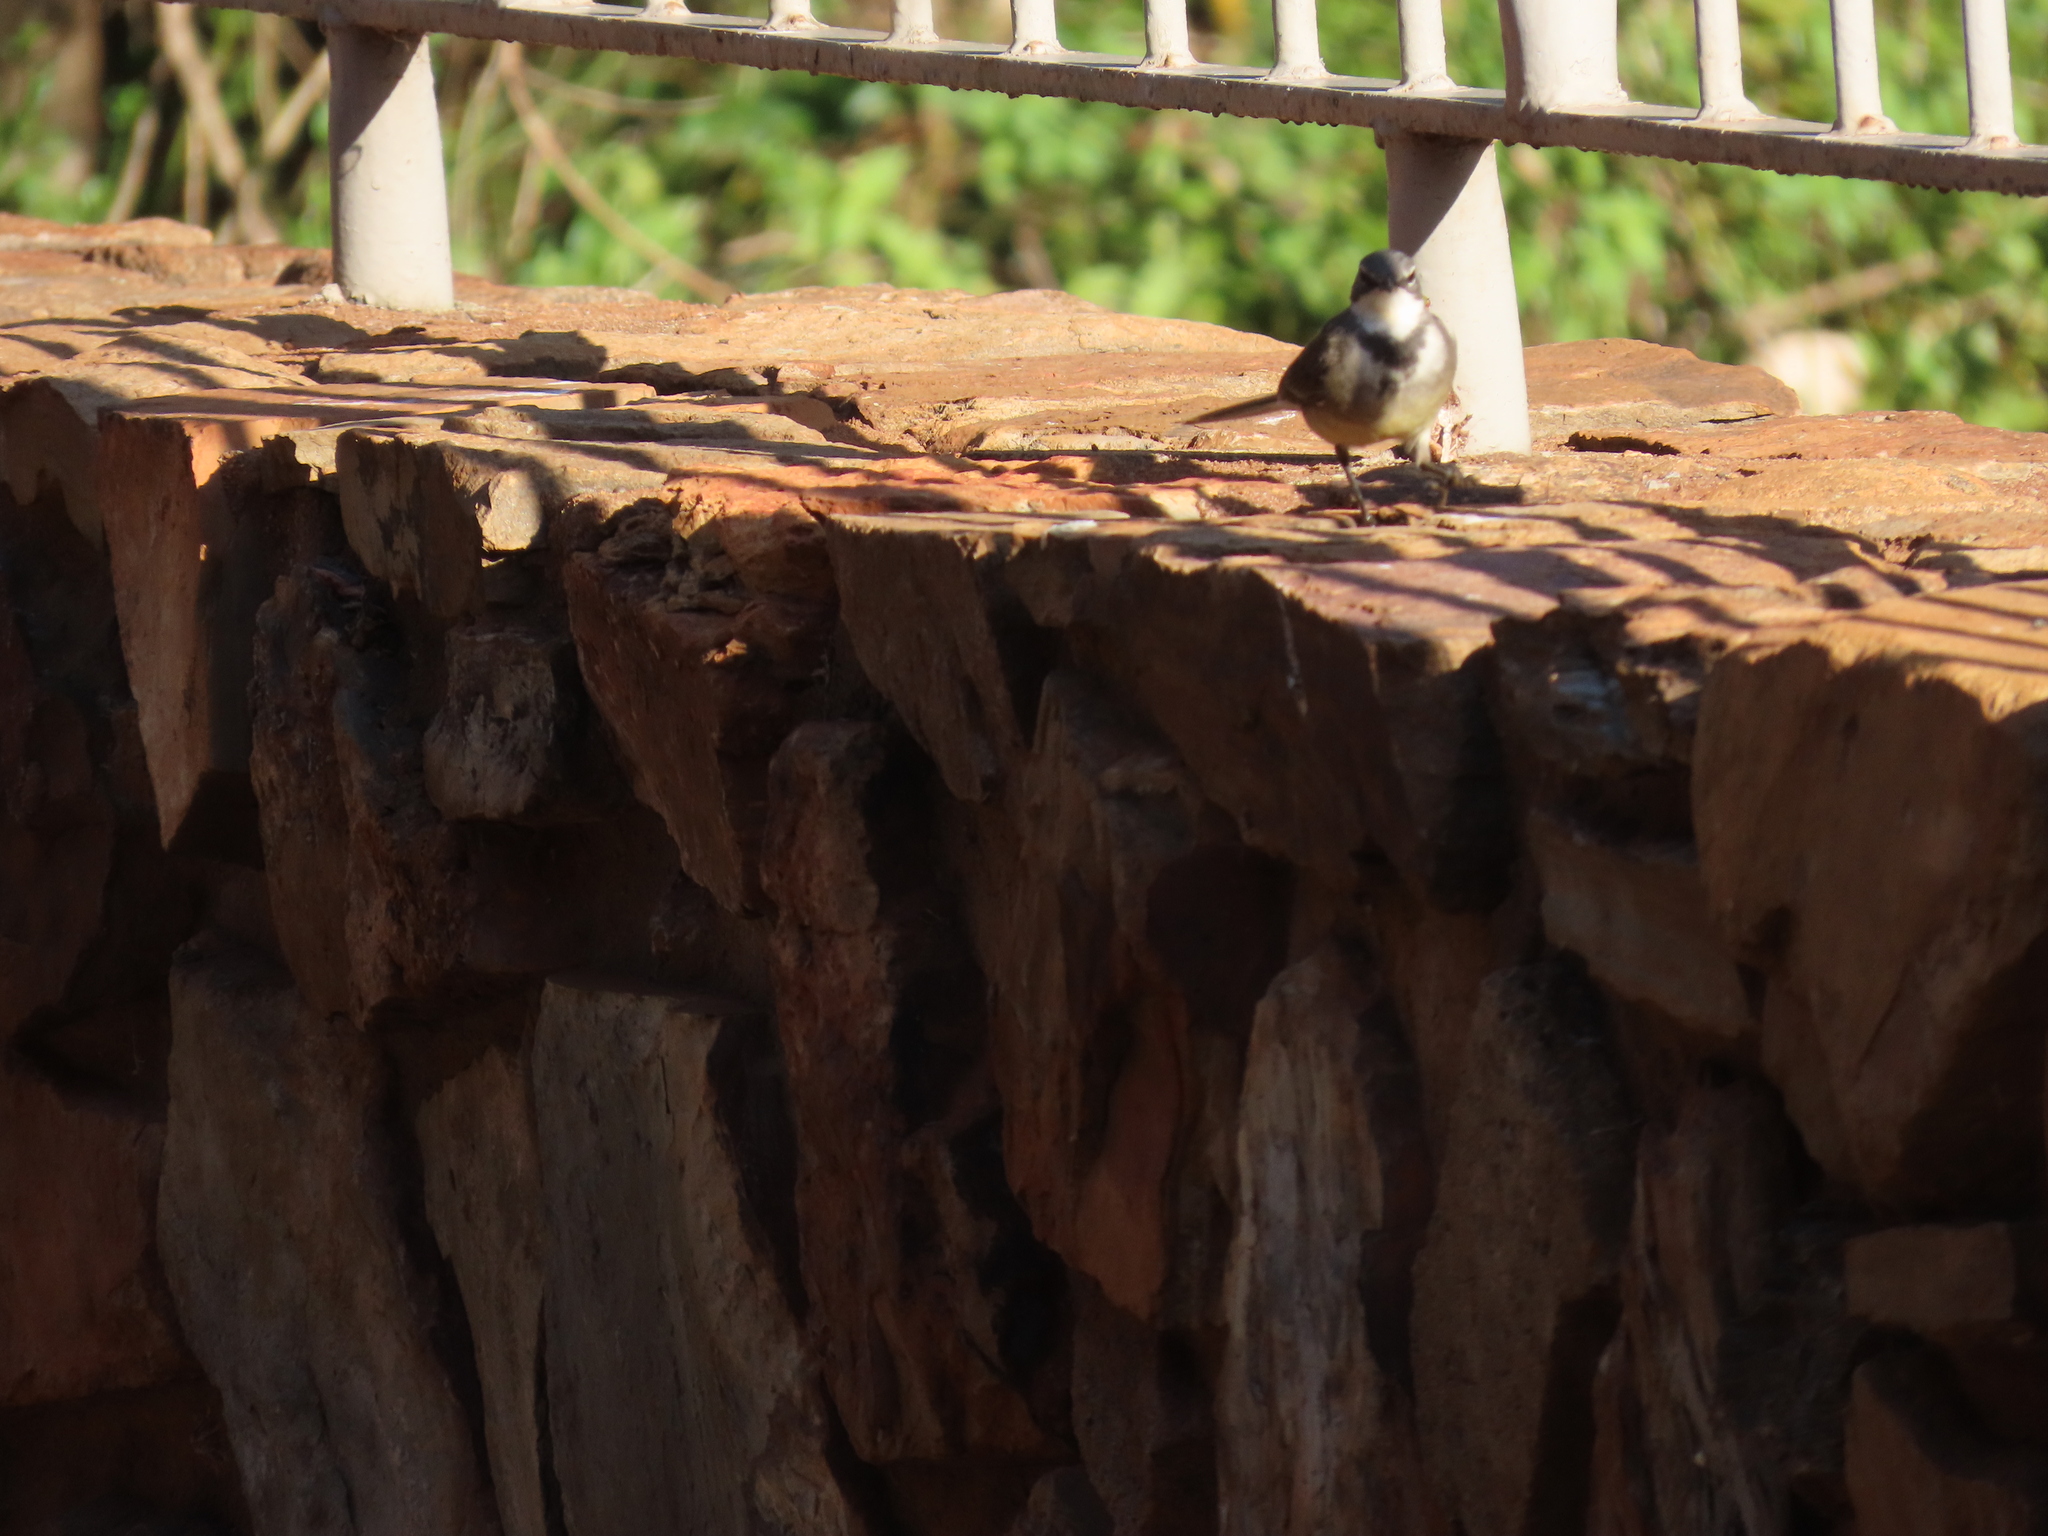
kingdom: Animalia
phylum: Chordata
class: Aves
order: Passeriformes
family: Motacillidae
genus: Motacilla
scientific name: Motacilla capensis
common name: Cape wagtail
